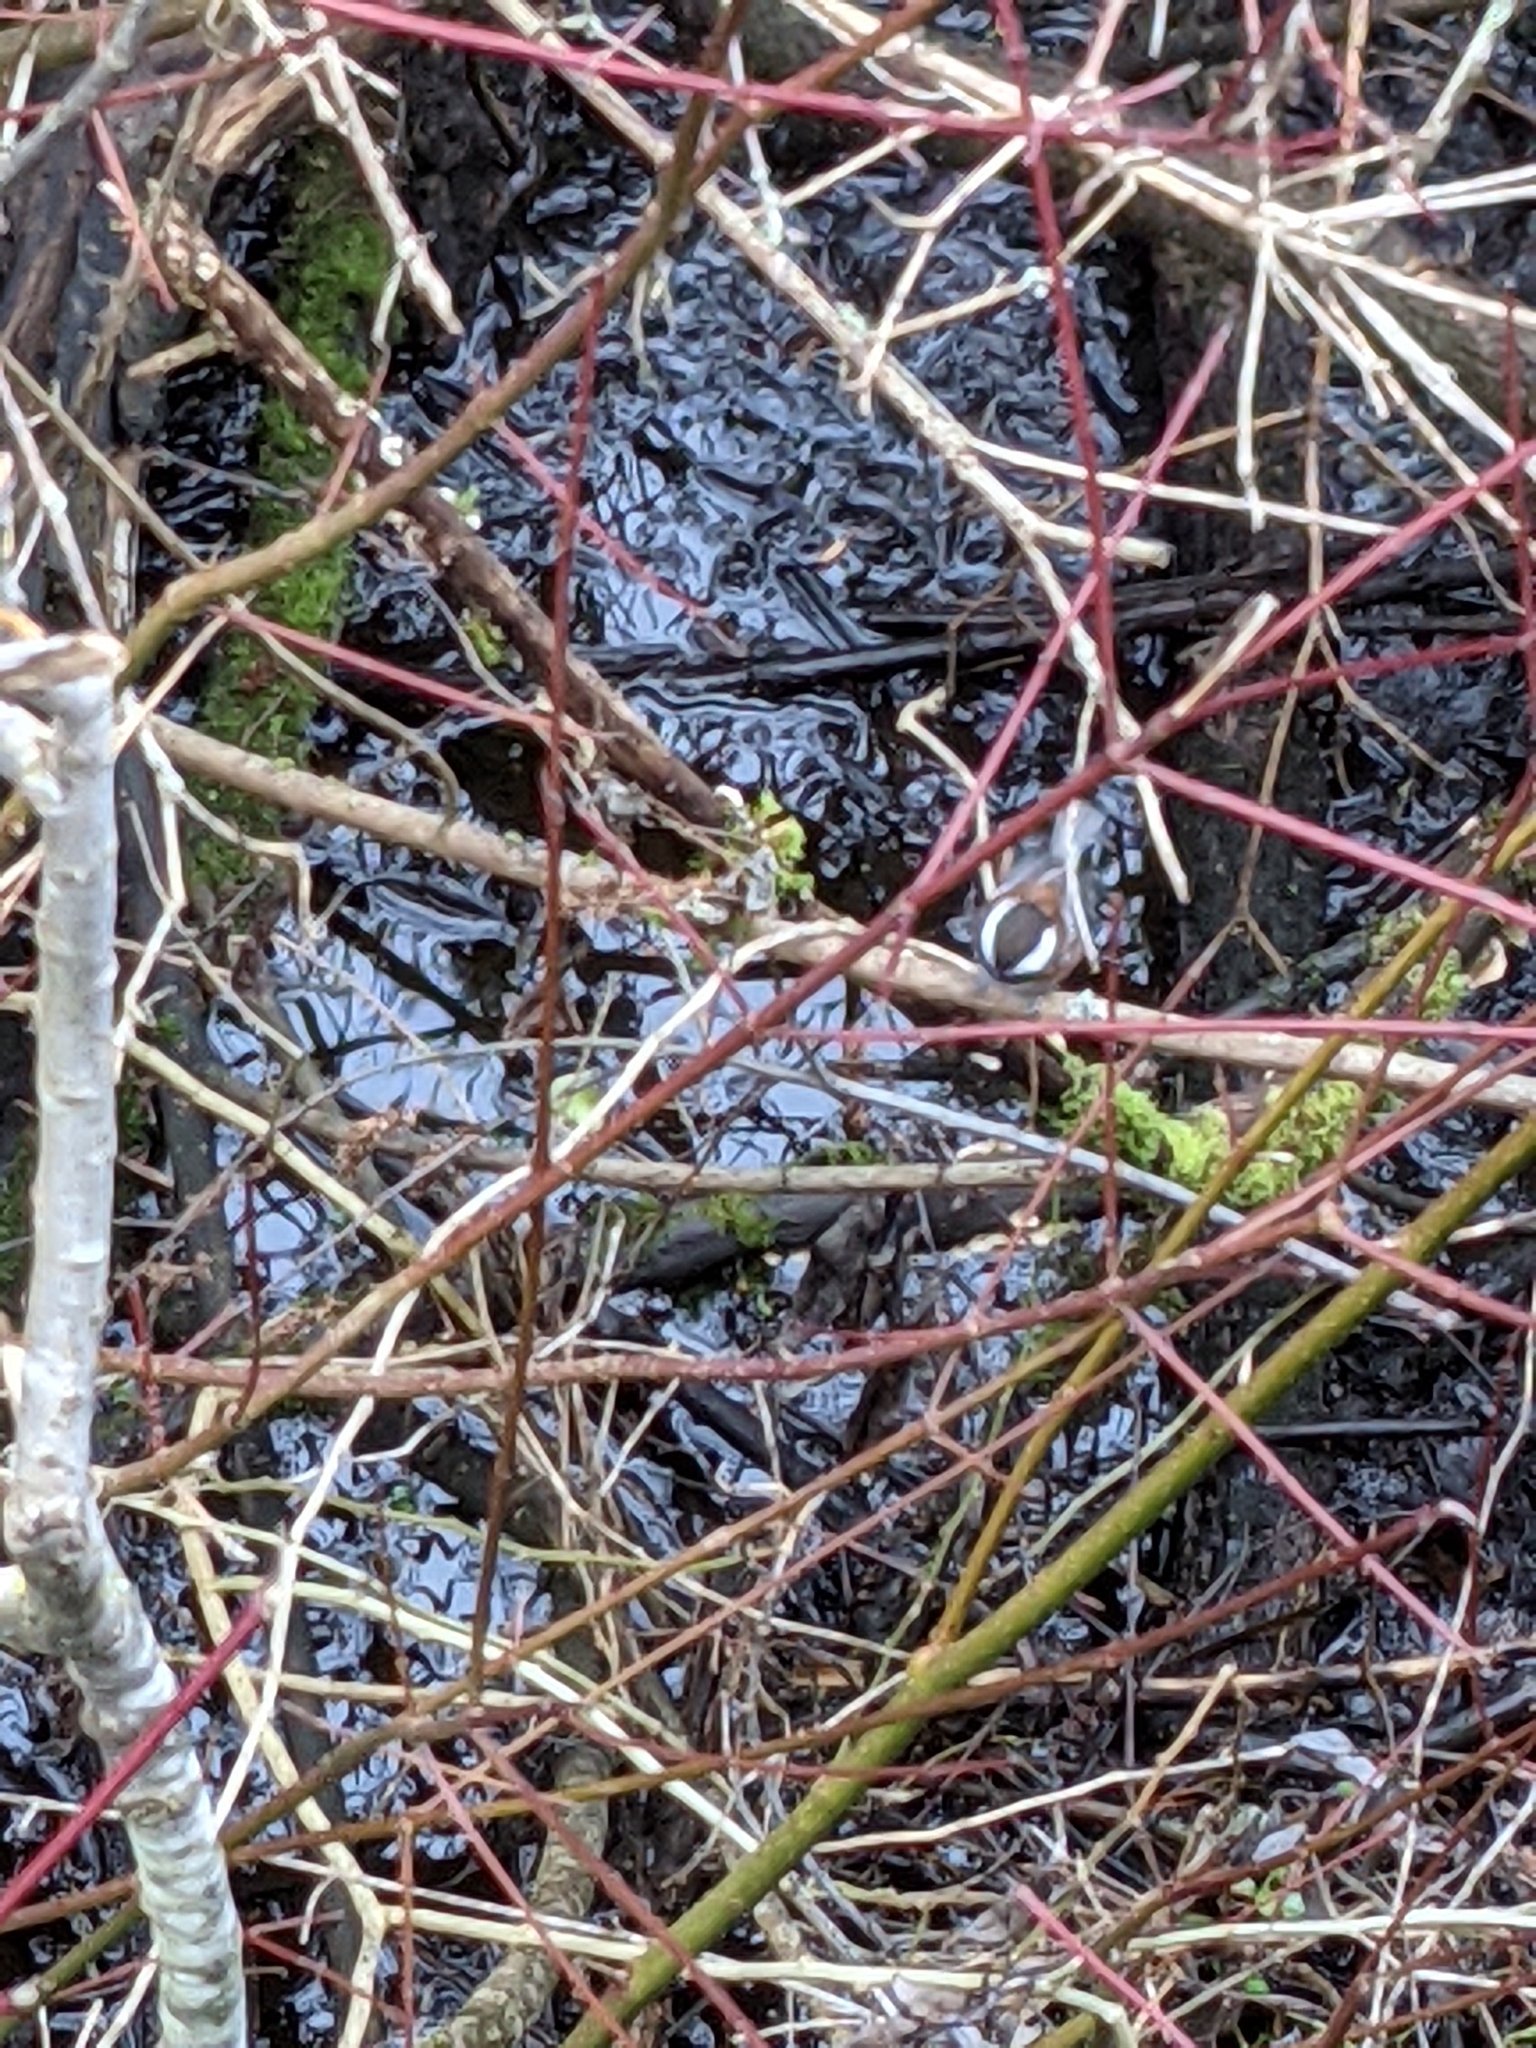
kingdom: Animalia
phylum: Chordata
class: Aves
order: Passeriformes
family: Paridae
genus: Poecile
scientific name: Poecile rufescens
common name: Chestnut-backed chickadee
